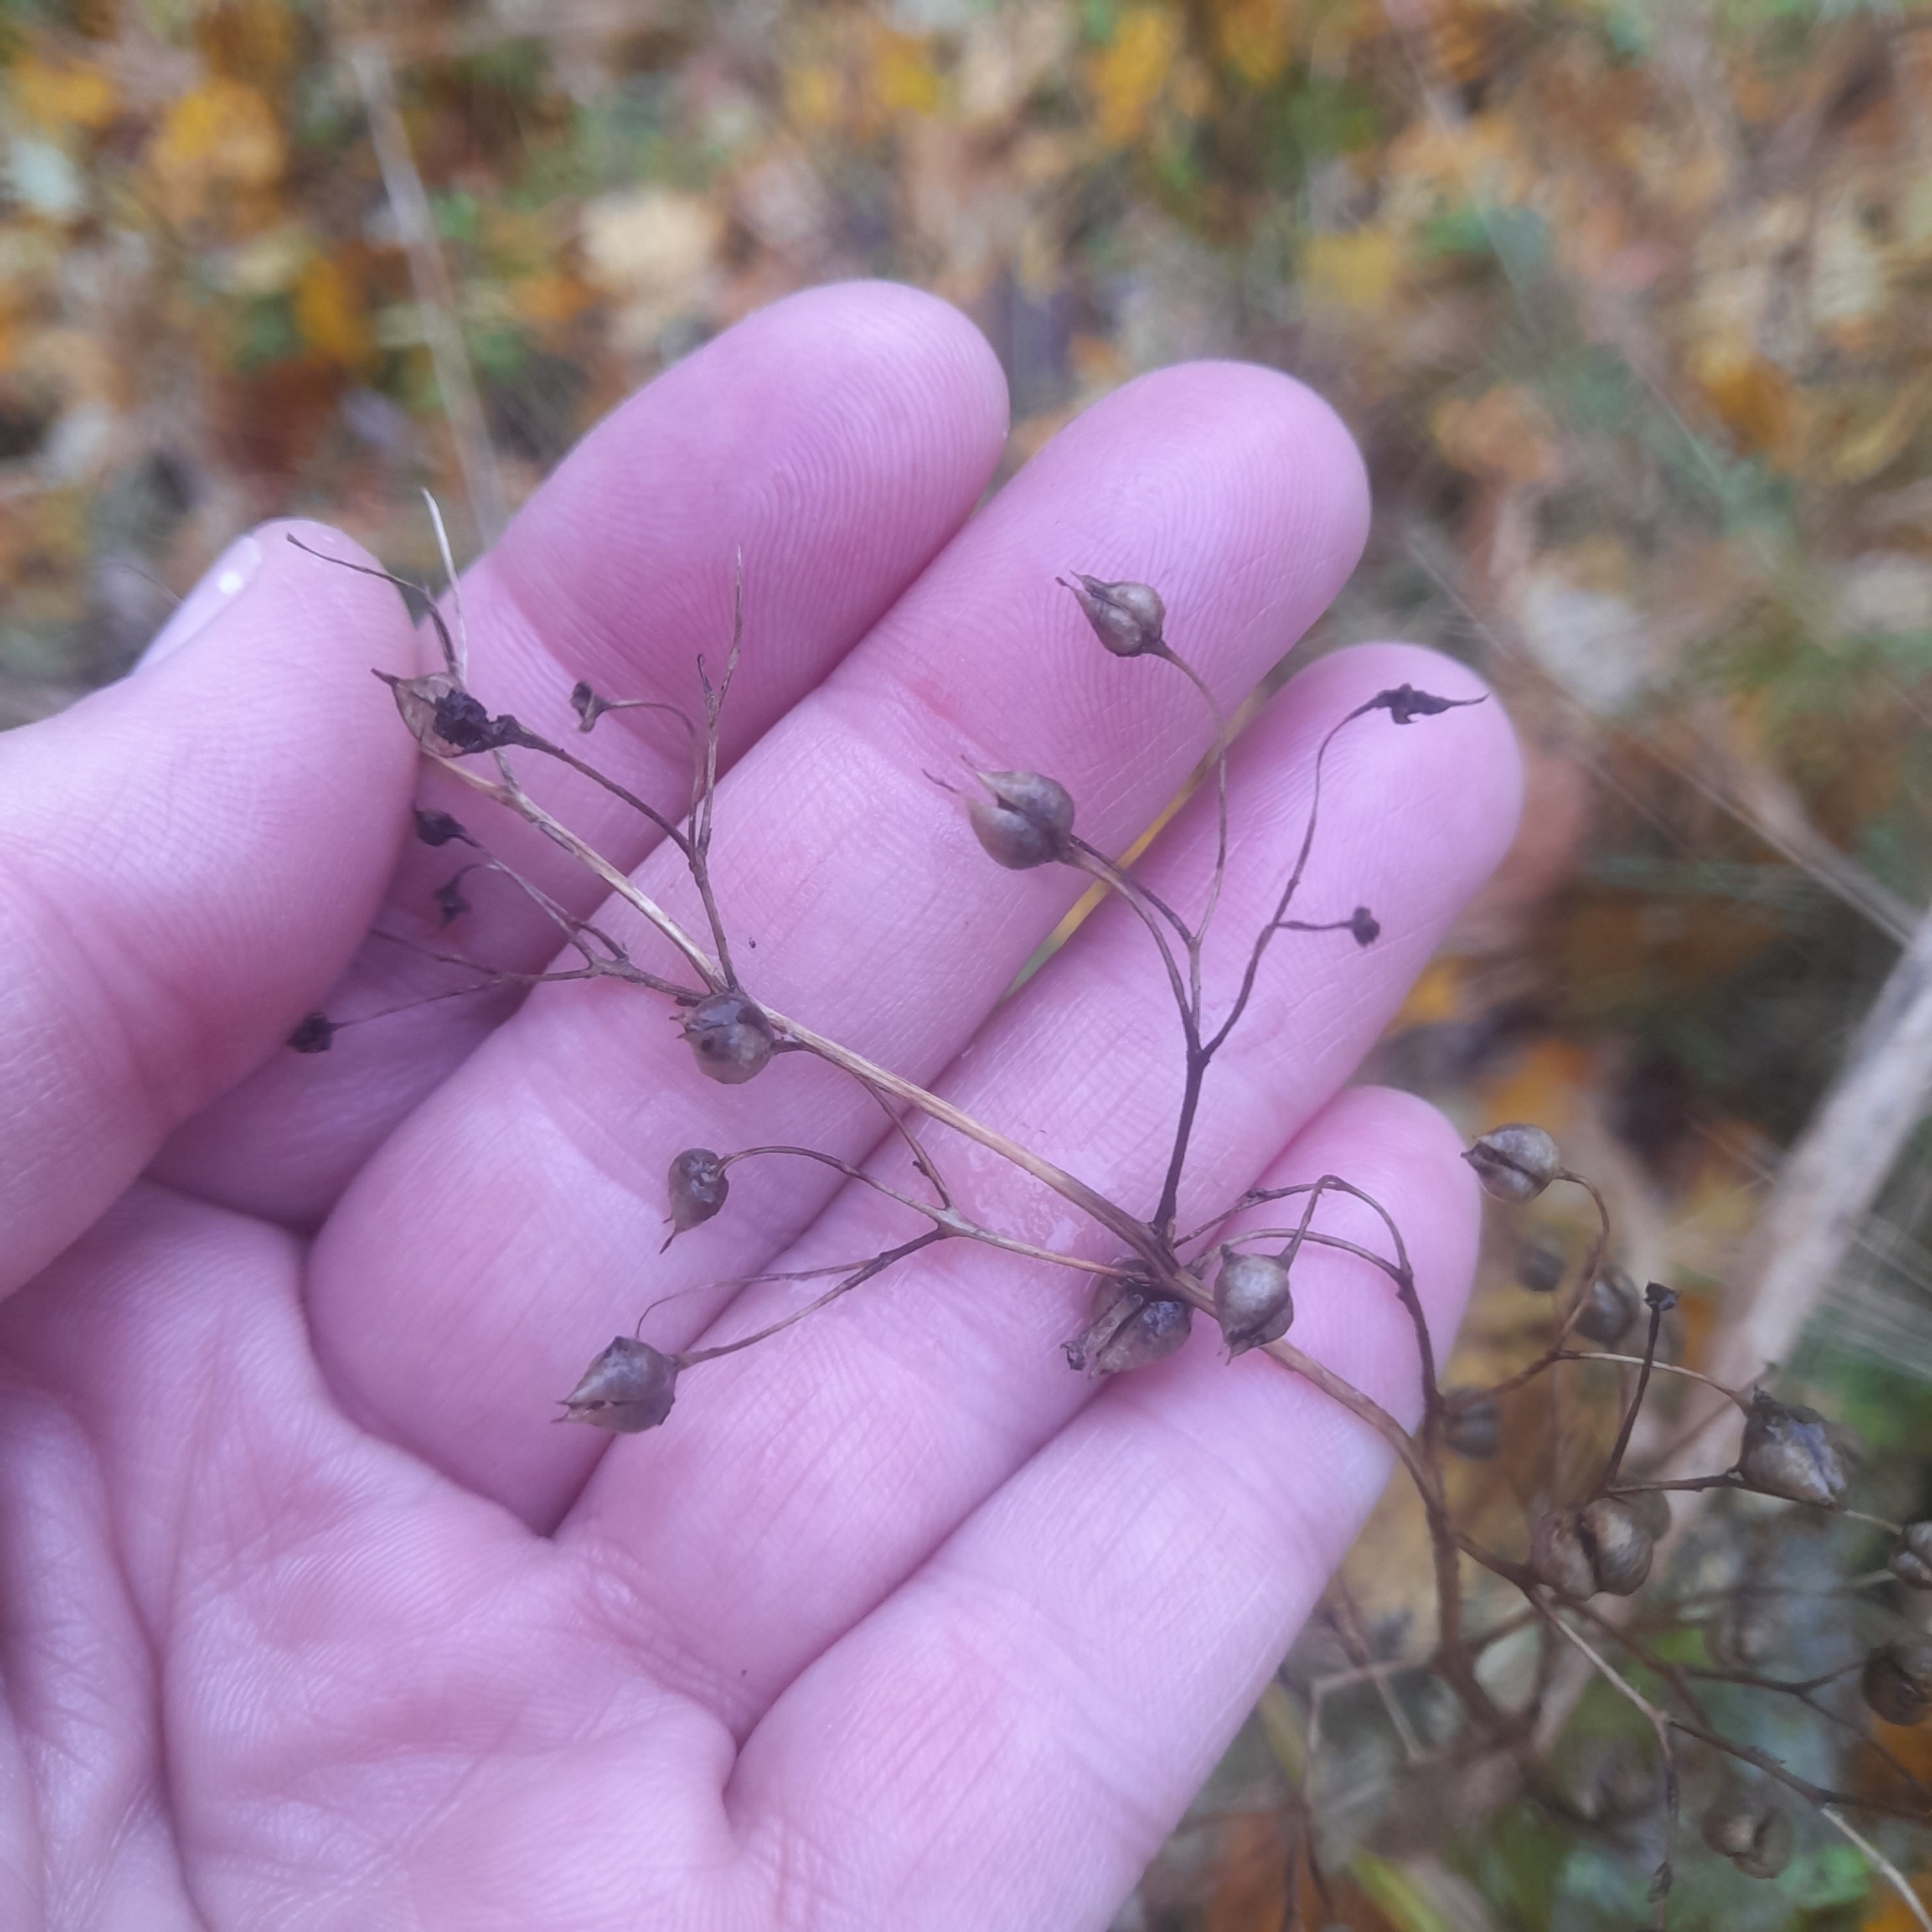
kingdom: Plantae
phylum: Tracheophyta
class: Magnoliopsida
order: Lamiales
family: Scrophulariaceae
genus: Scrophularia
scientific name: Scrophularia nodosa
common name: Common figwort
